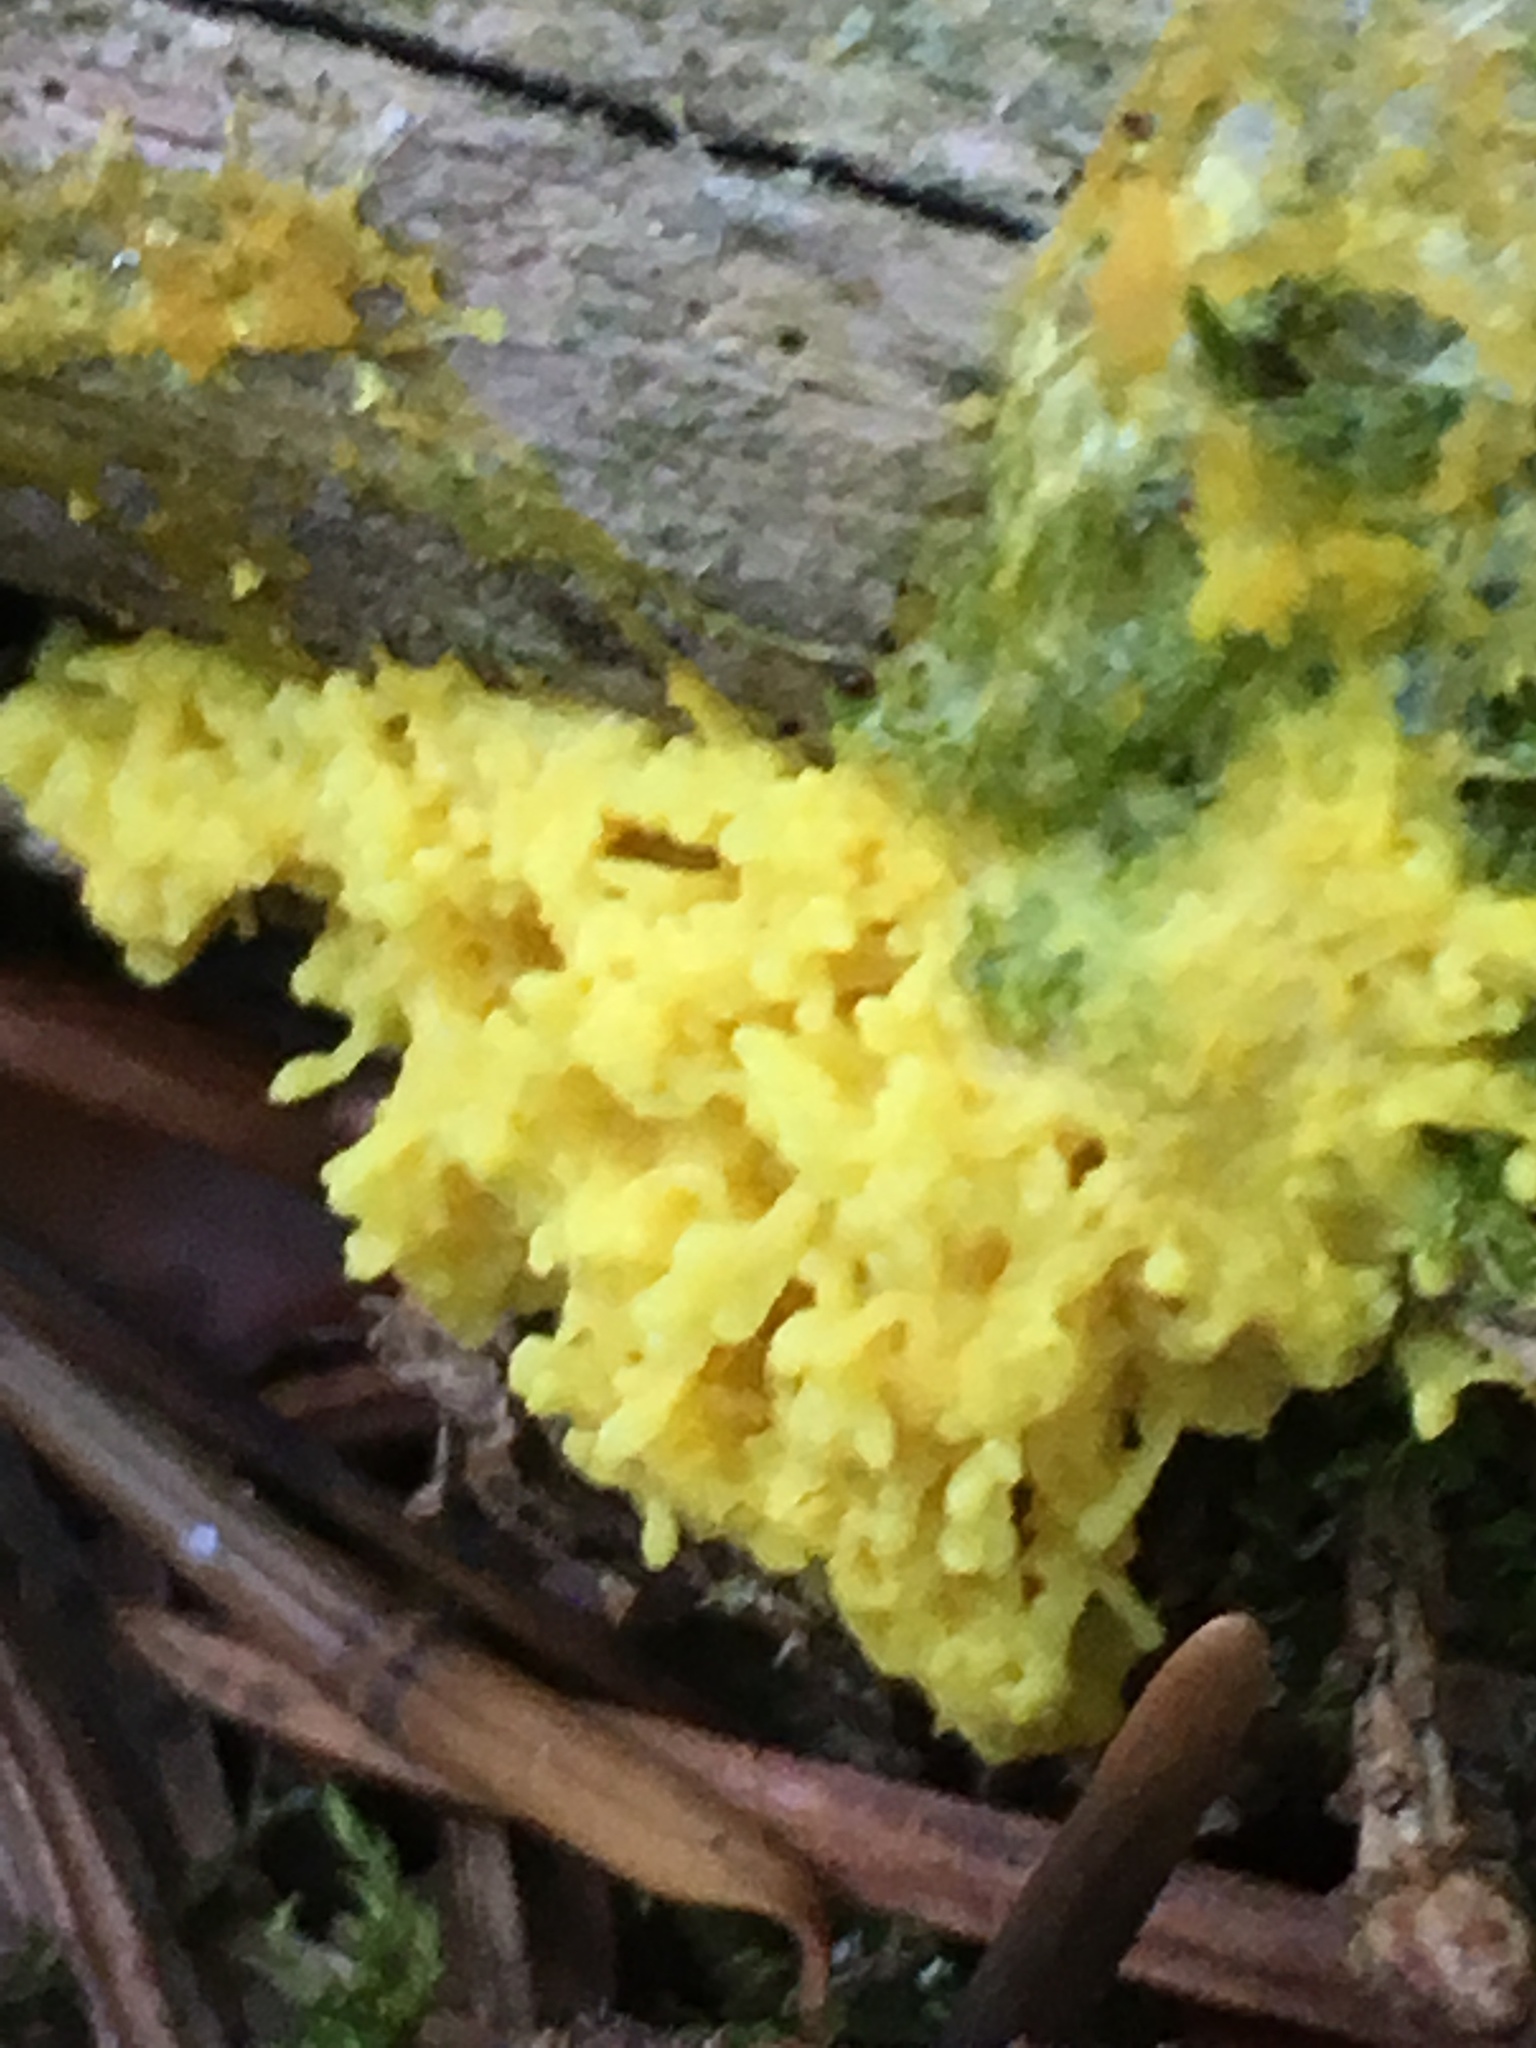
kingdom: Protozoa
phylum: Mycetozoa
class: Myxomycetes
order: Physarales
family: Physaraceae
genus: Fuligo
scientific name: Fuligo septica
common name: Dog vomit slime mold
